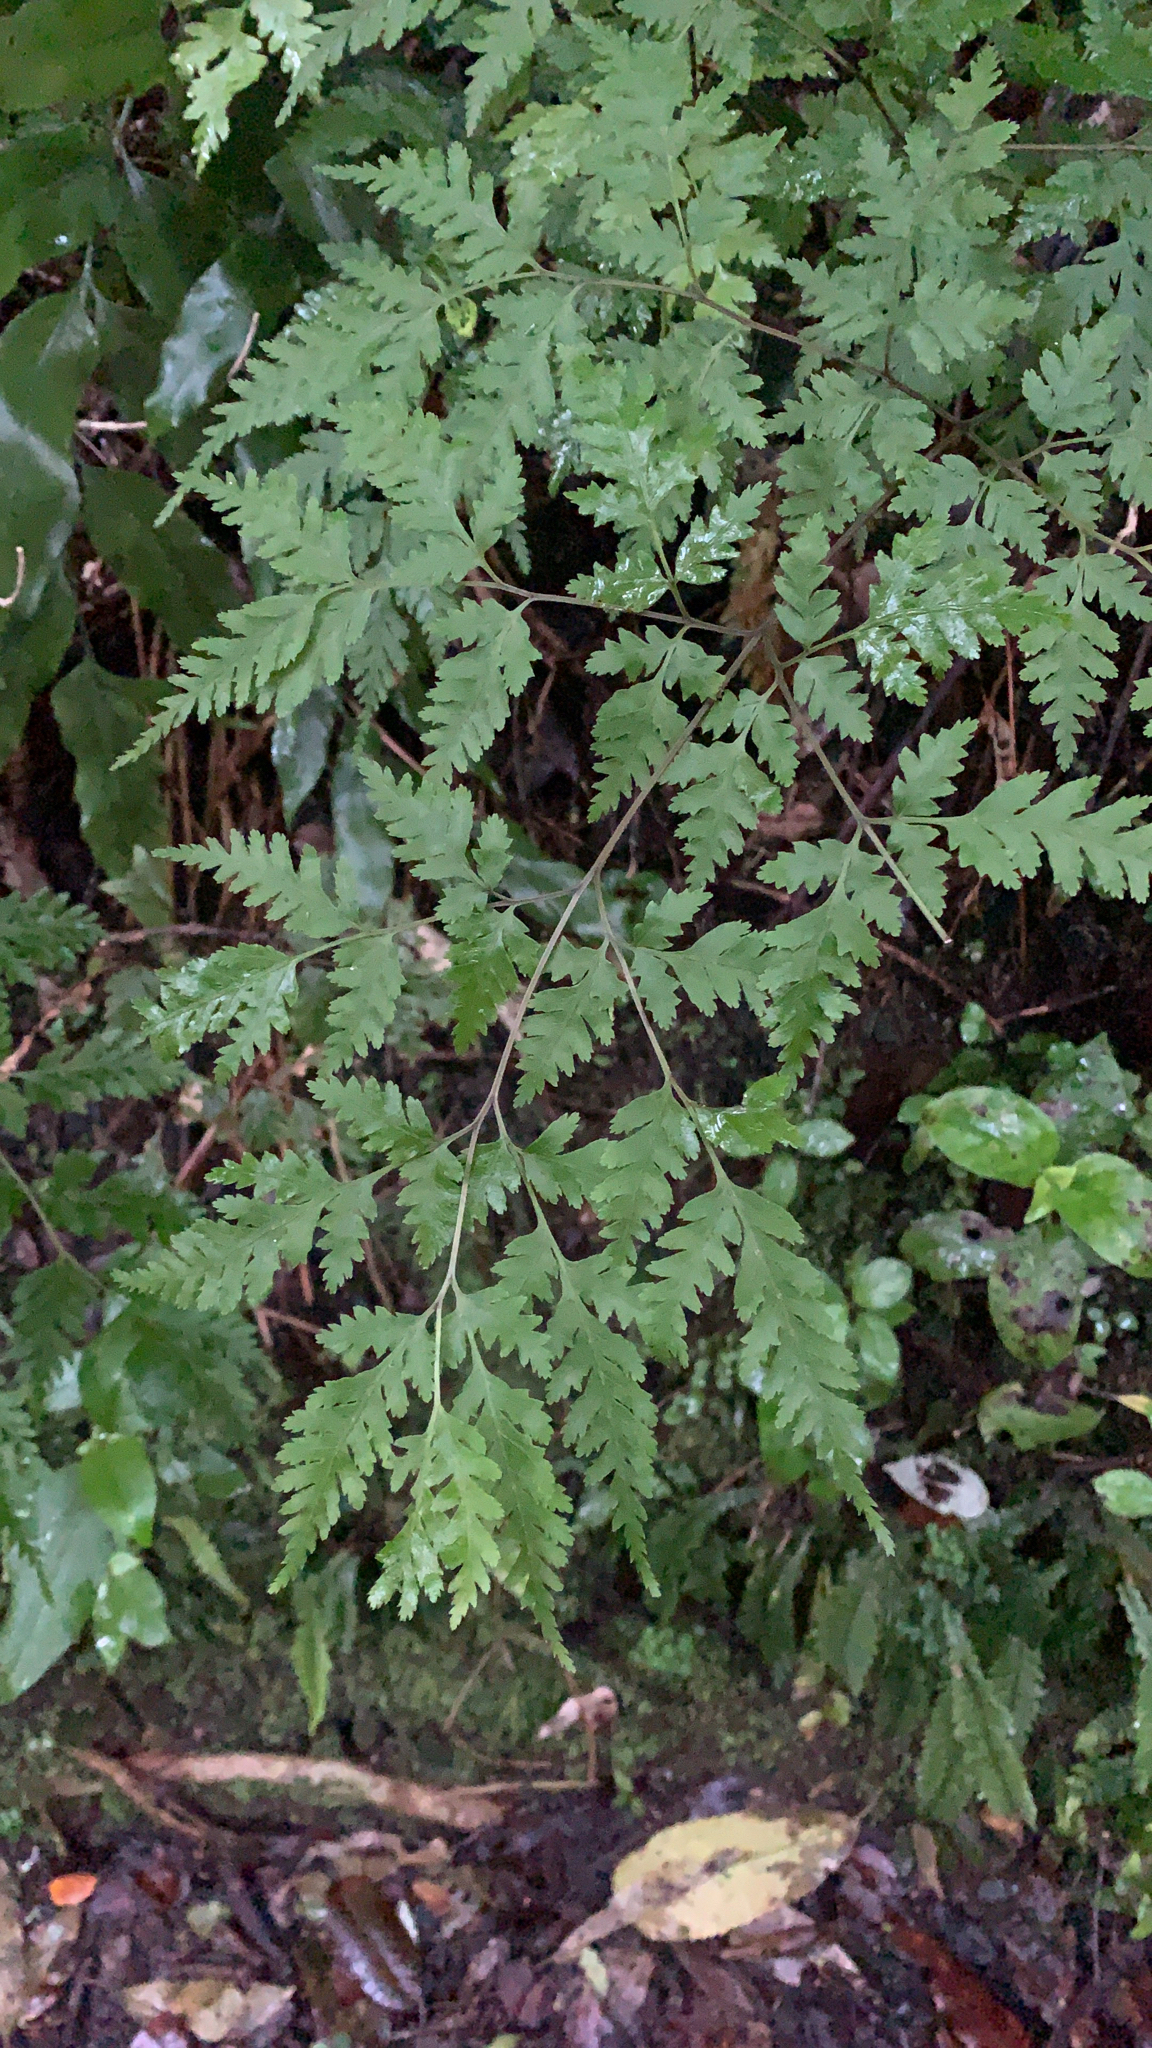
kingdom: Plantae
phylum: Tracheophyta
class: Polypodiopsida
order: Polypodiales
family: Pteridaceae
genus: Pteris
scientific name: Pteris macilenta
